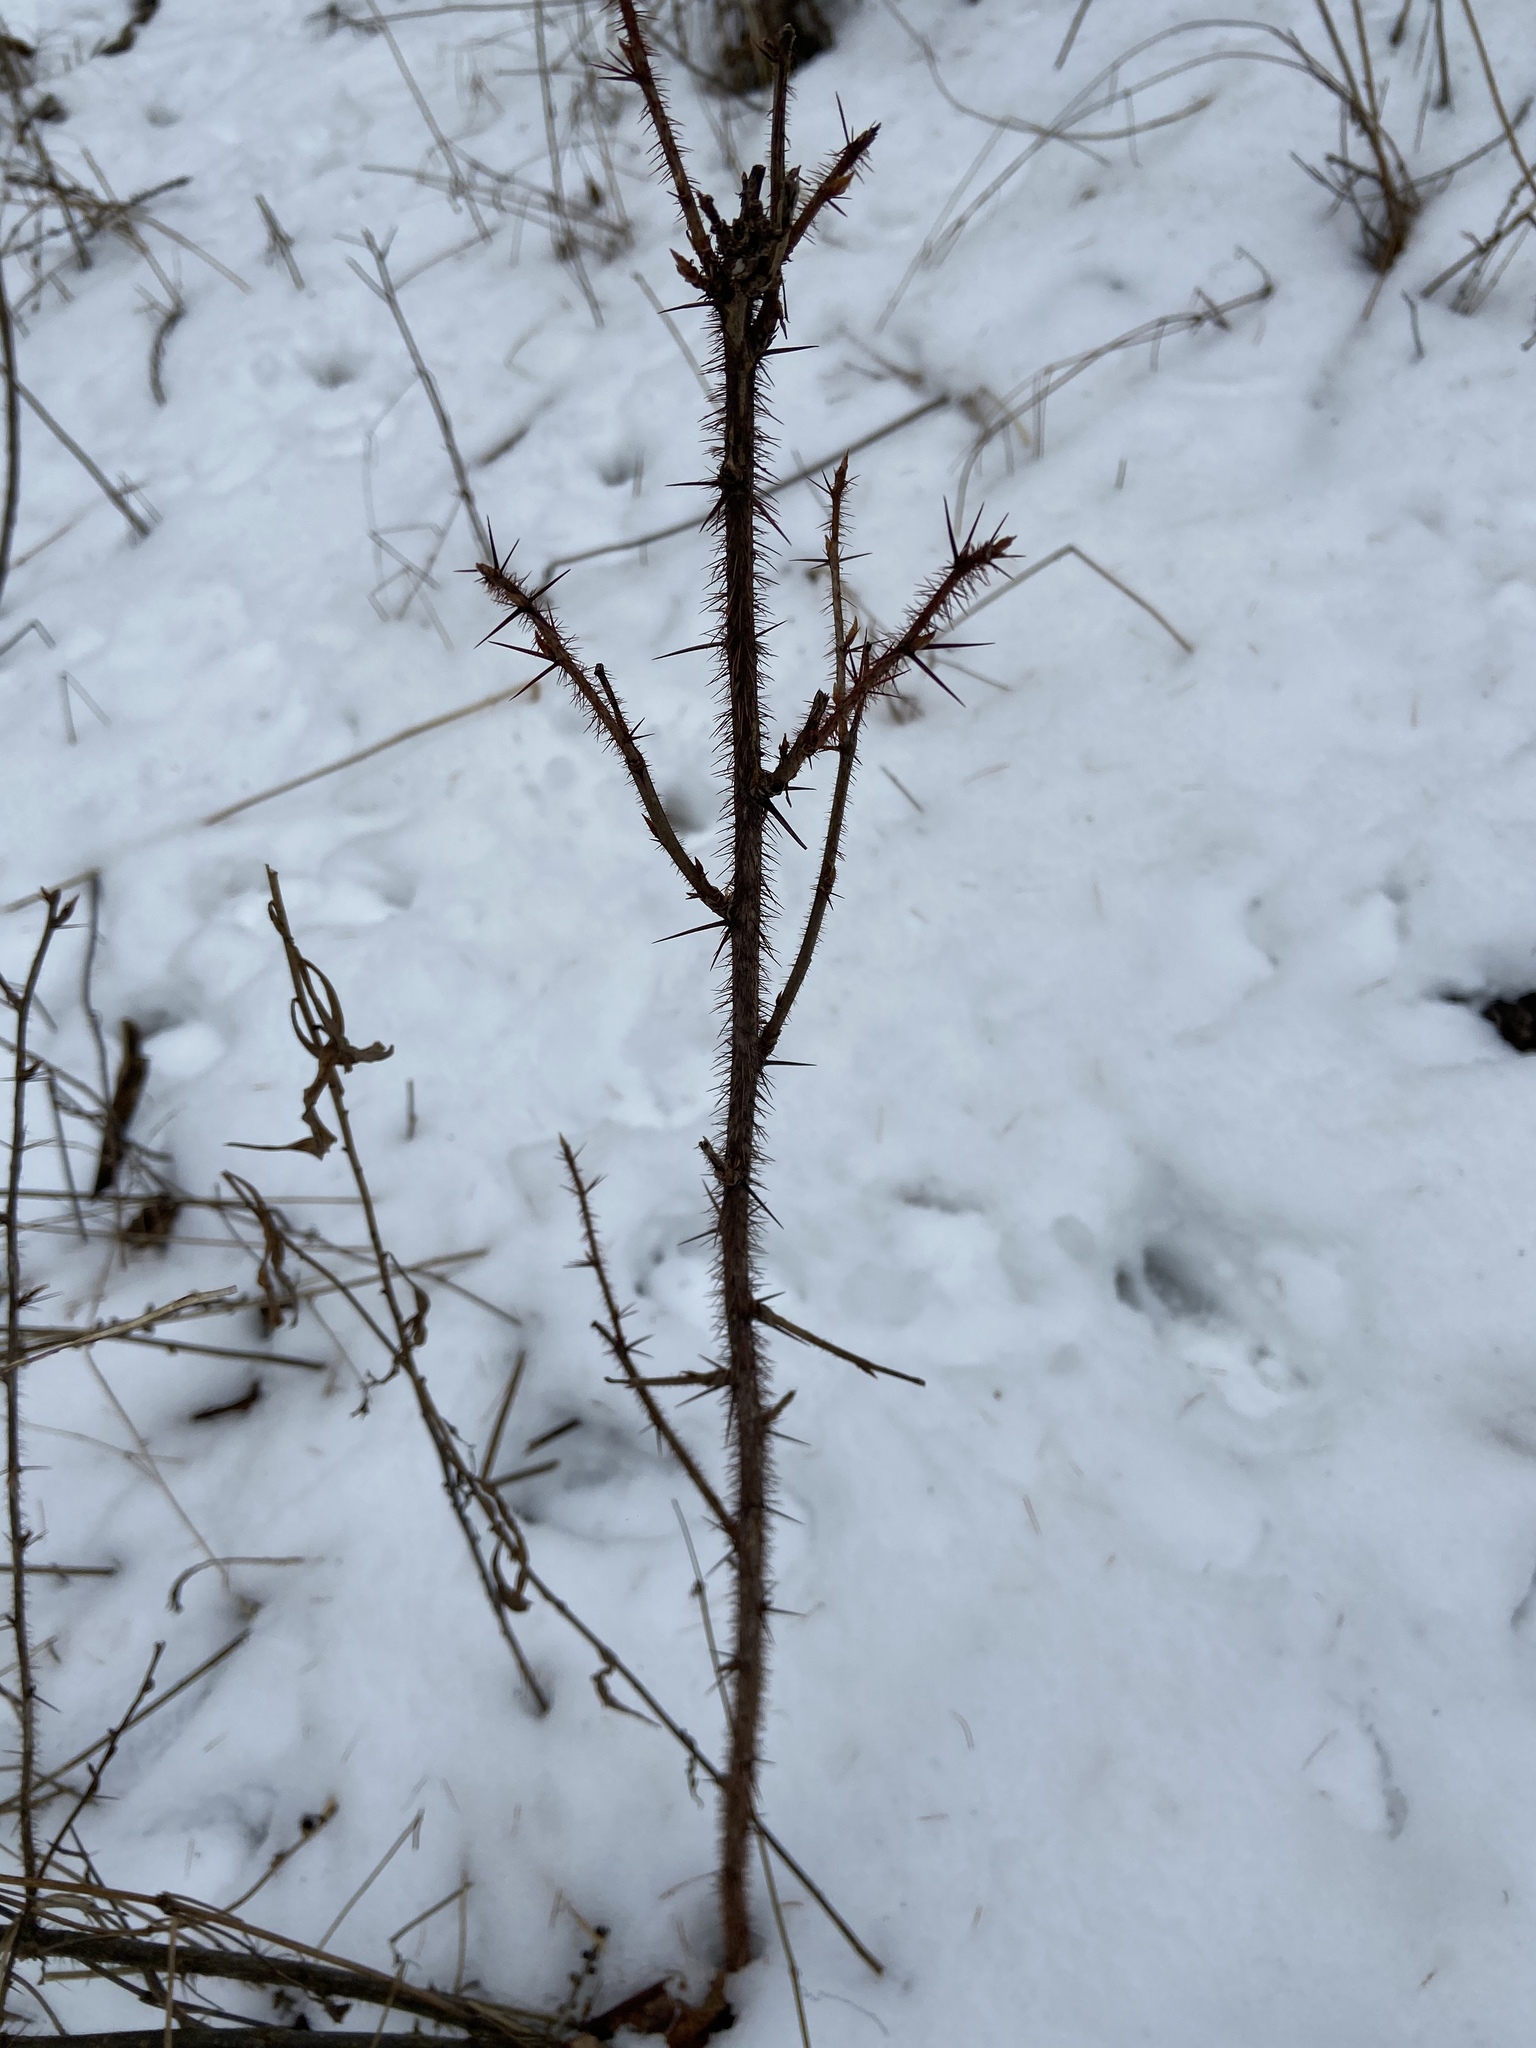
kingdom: Plantae
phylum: Tracheophyta
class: Magnoliopsida
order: Saxifragales
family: Grossulariaceae
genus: Ribes
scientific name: Ribes cynosbati
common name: American gooseberry
